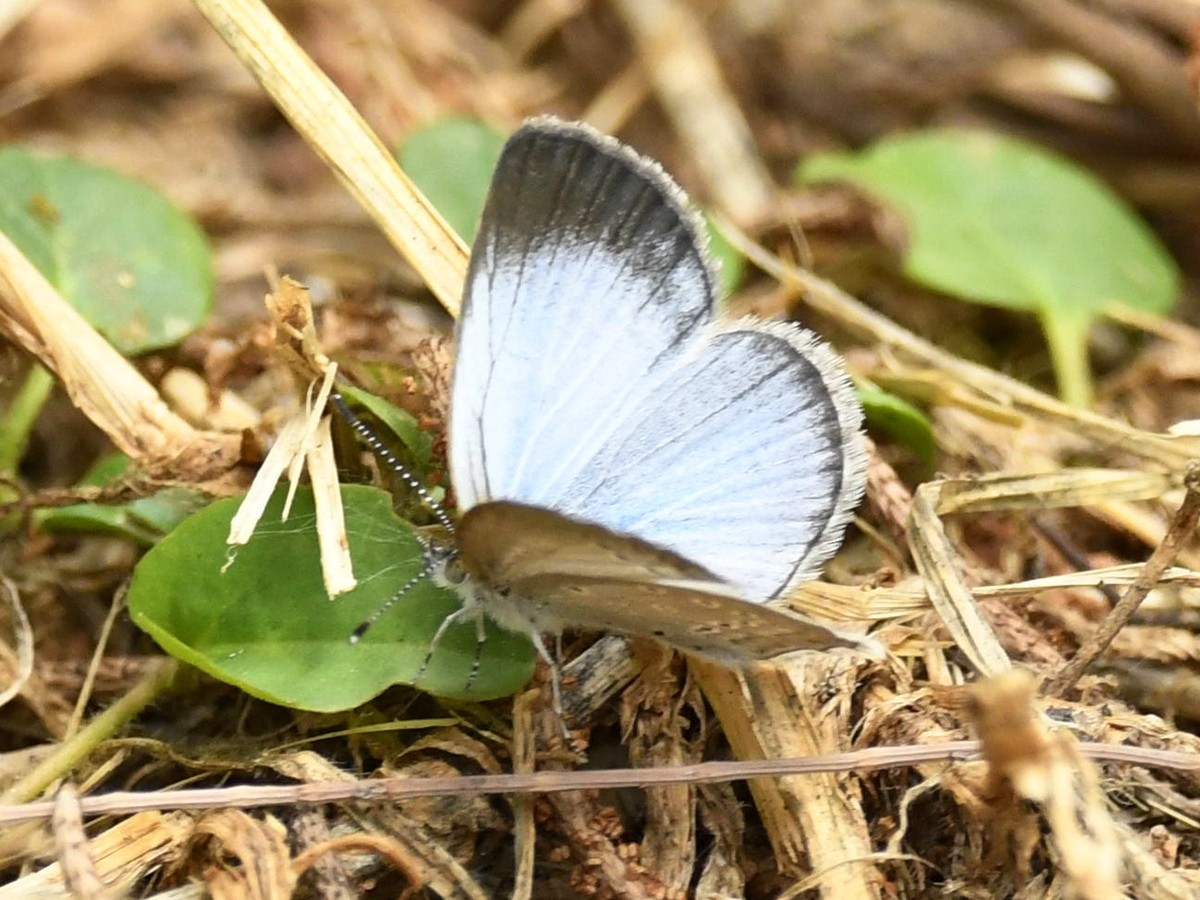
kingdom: Animalia
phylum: Arthropoda
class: Insecta
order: Lepidoptera
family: Lycaenidae
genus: Pseudozizeeria
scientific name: Pseudozizeeria maha
